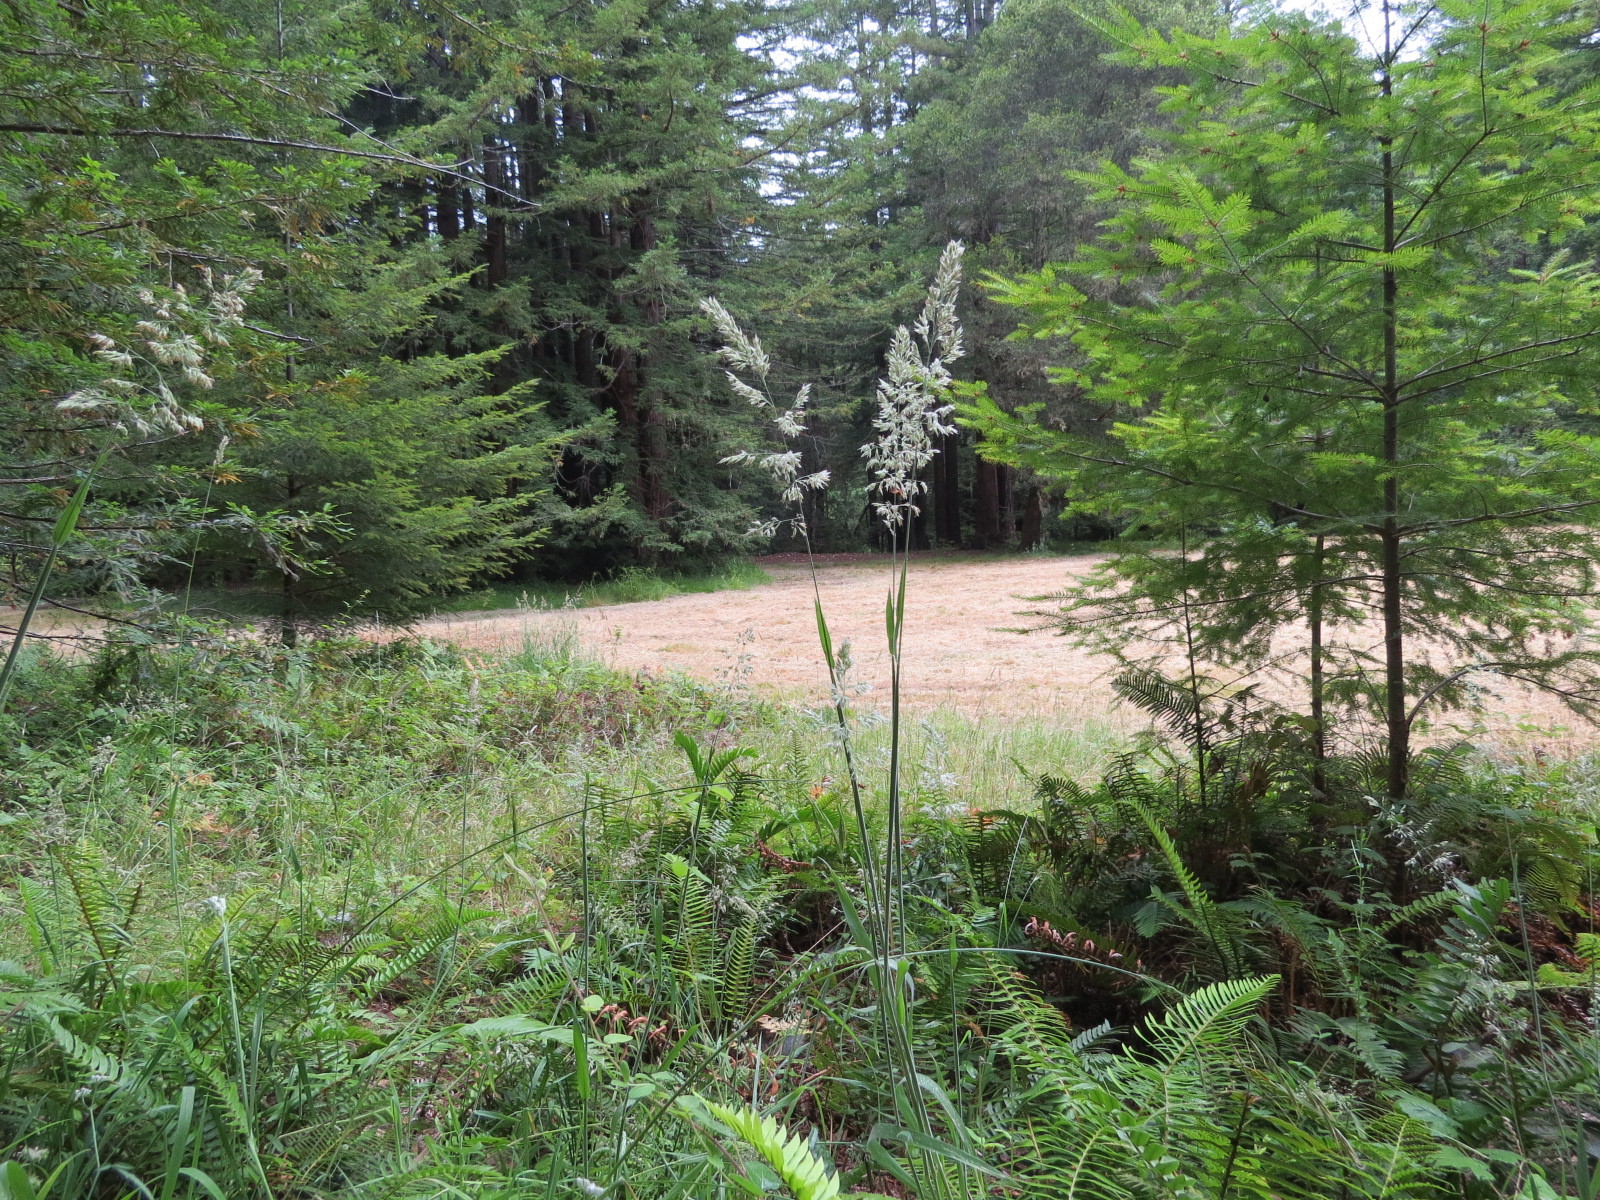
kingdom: Plantae
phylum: Tracheophyta
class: Liliopsida
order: Poales
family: Poaceae
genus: Holcus
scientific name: Holcus lanatus
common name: Yorkshire-fog
